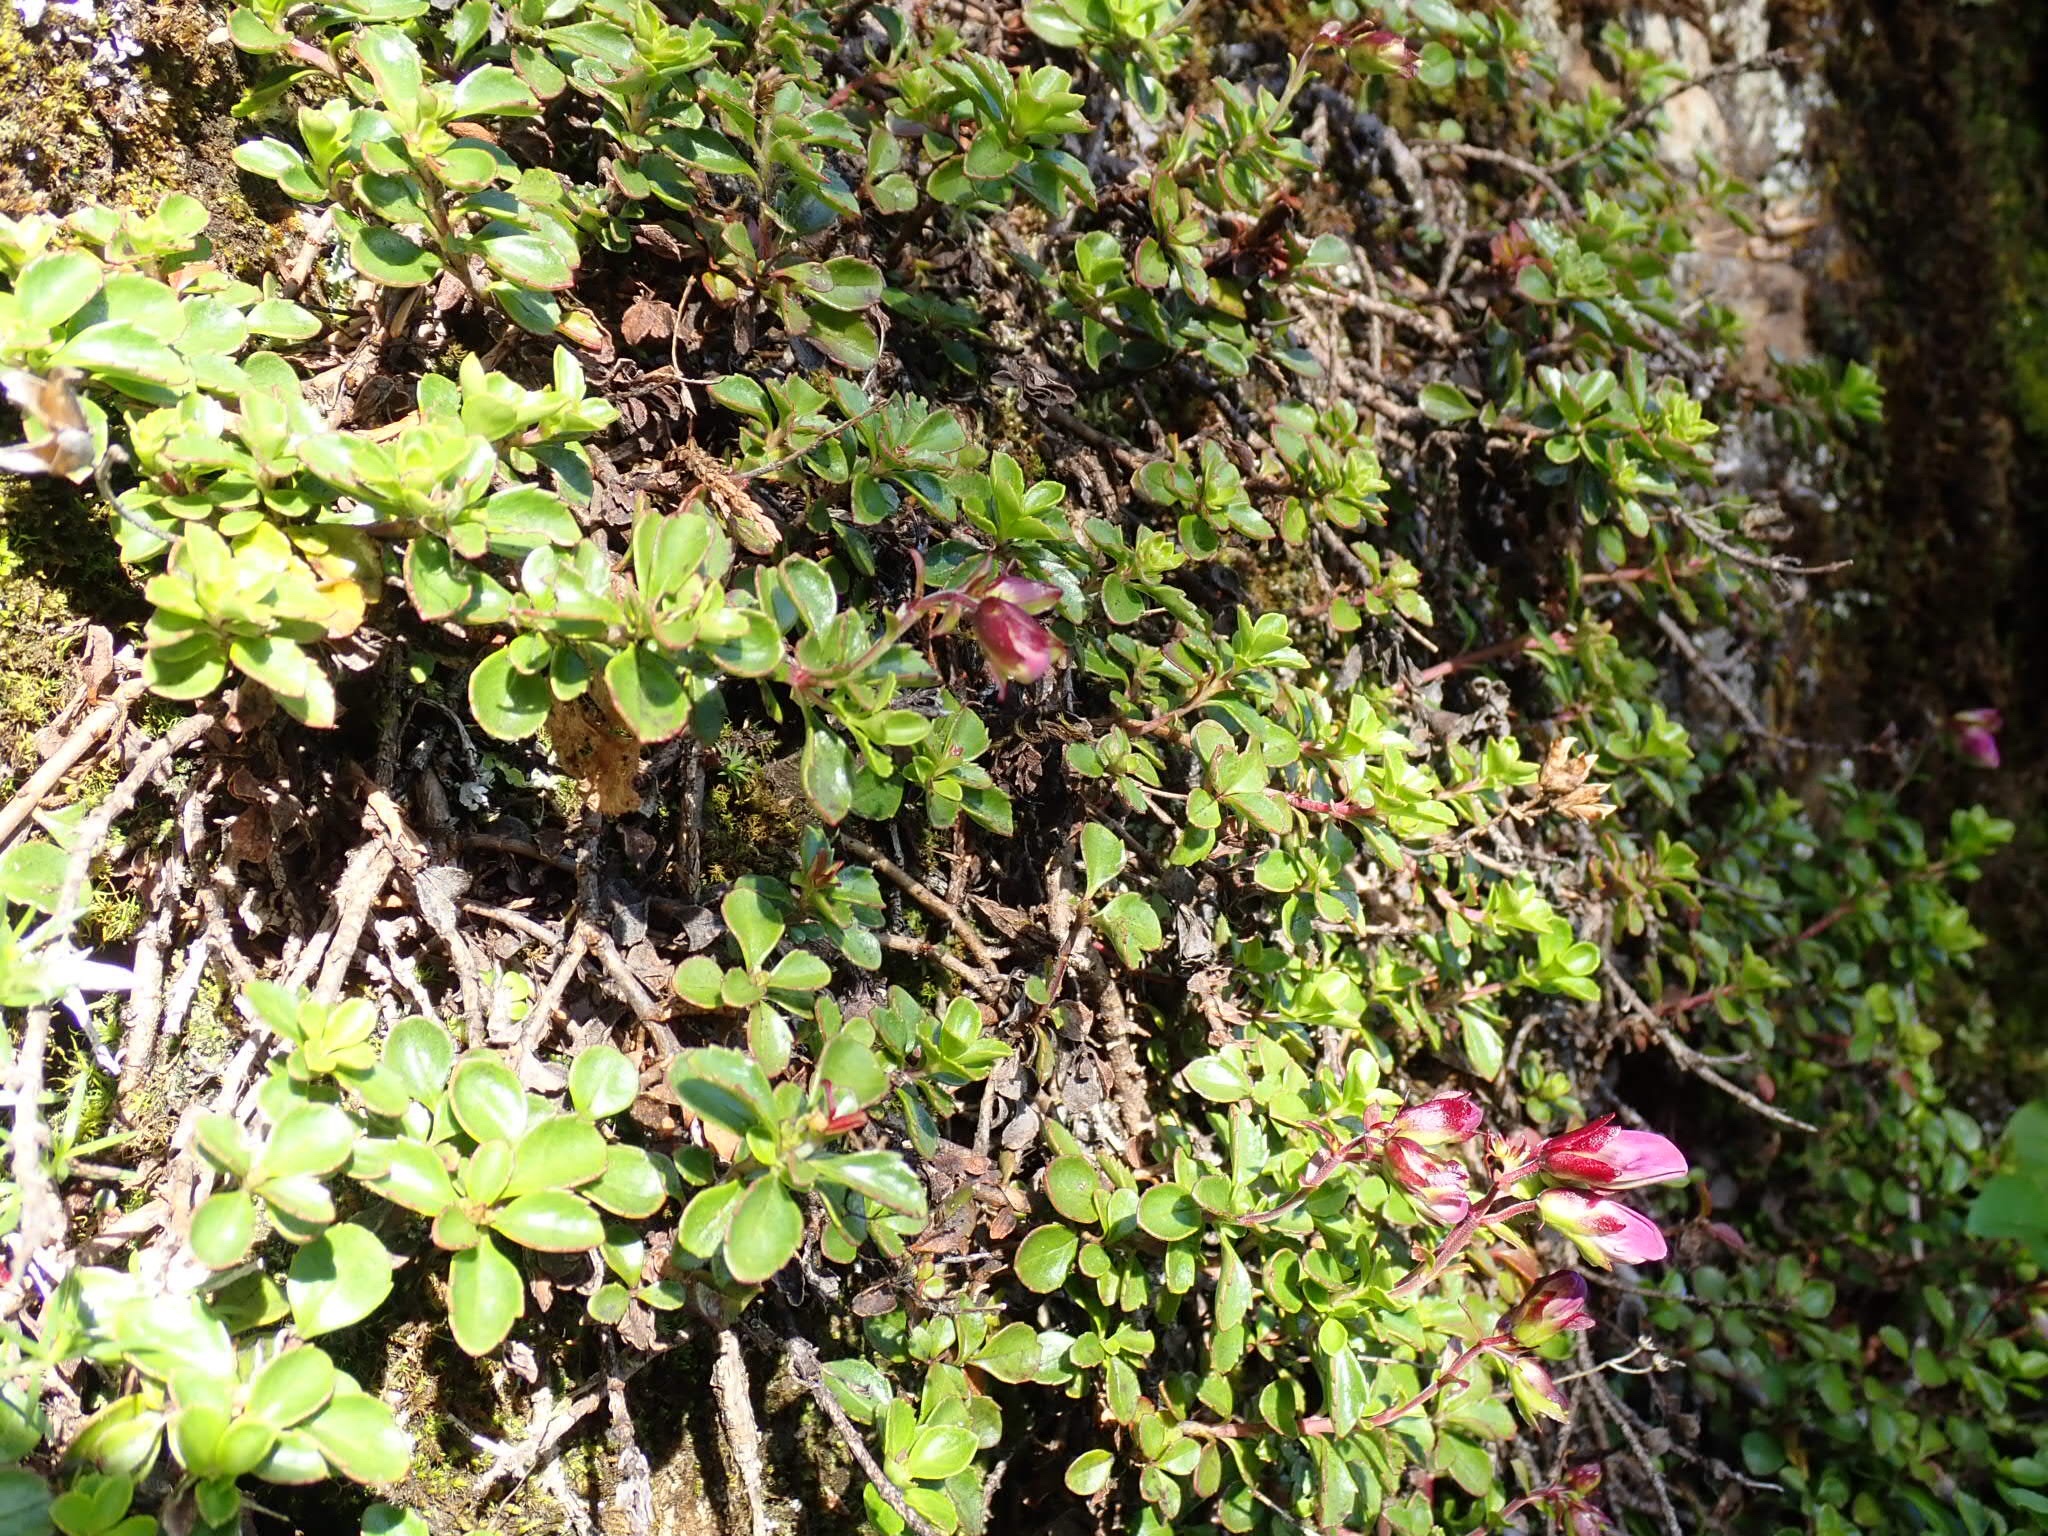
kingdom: Plantae
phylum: Tracheophyta
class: Magnoliopsida
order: Lamiales
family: Plantaginaceae
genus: Penstemon
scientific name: Penstemon davidsonii
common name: Davidson's penstemon
